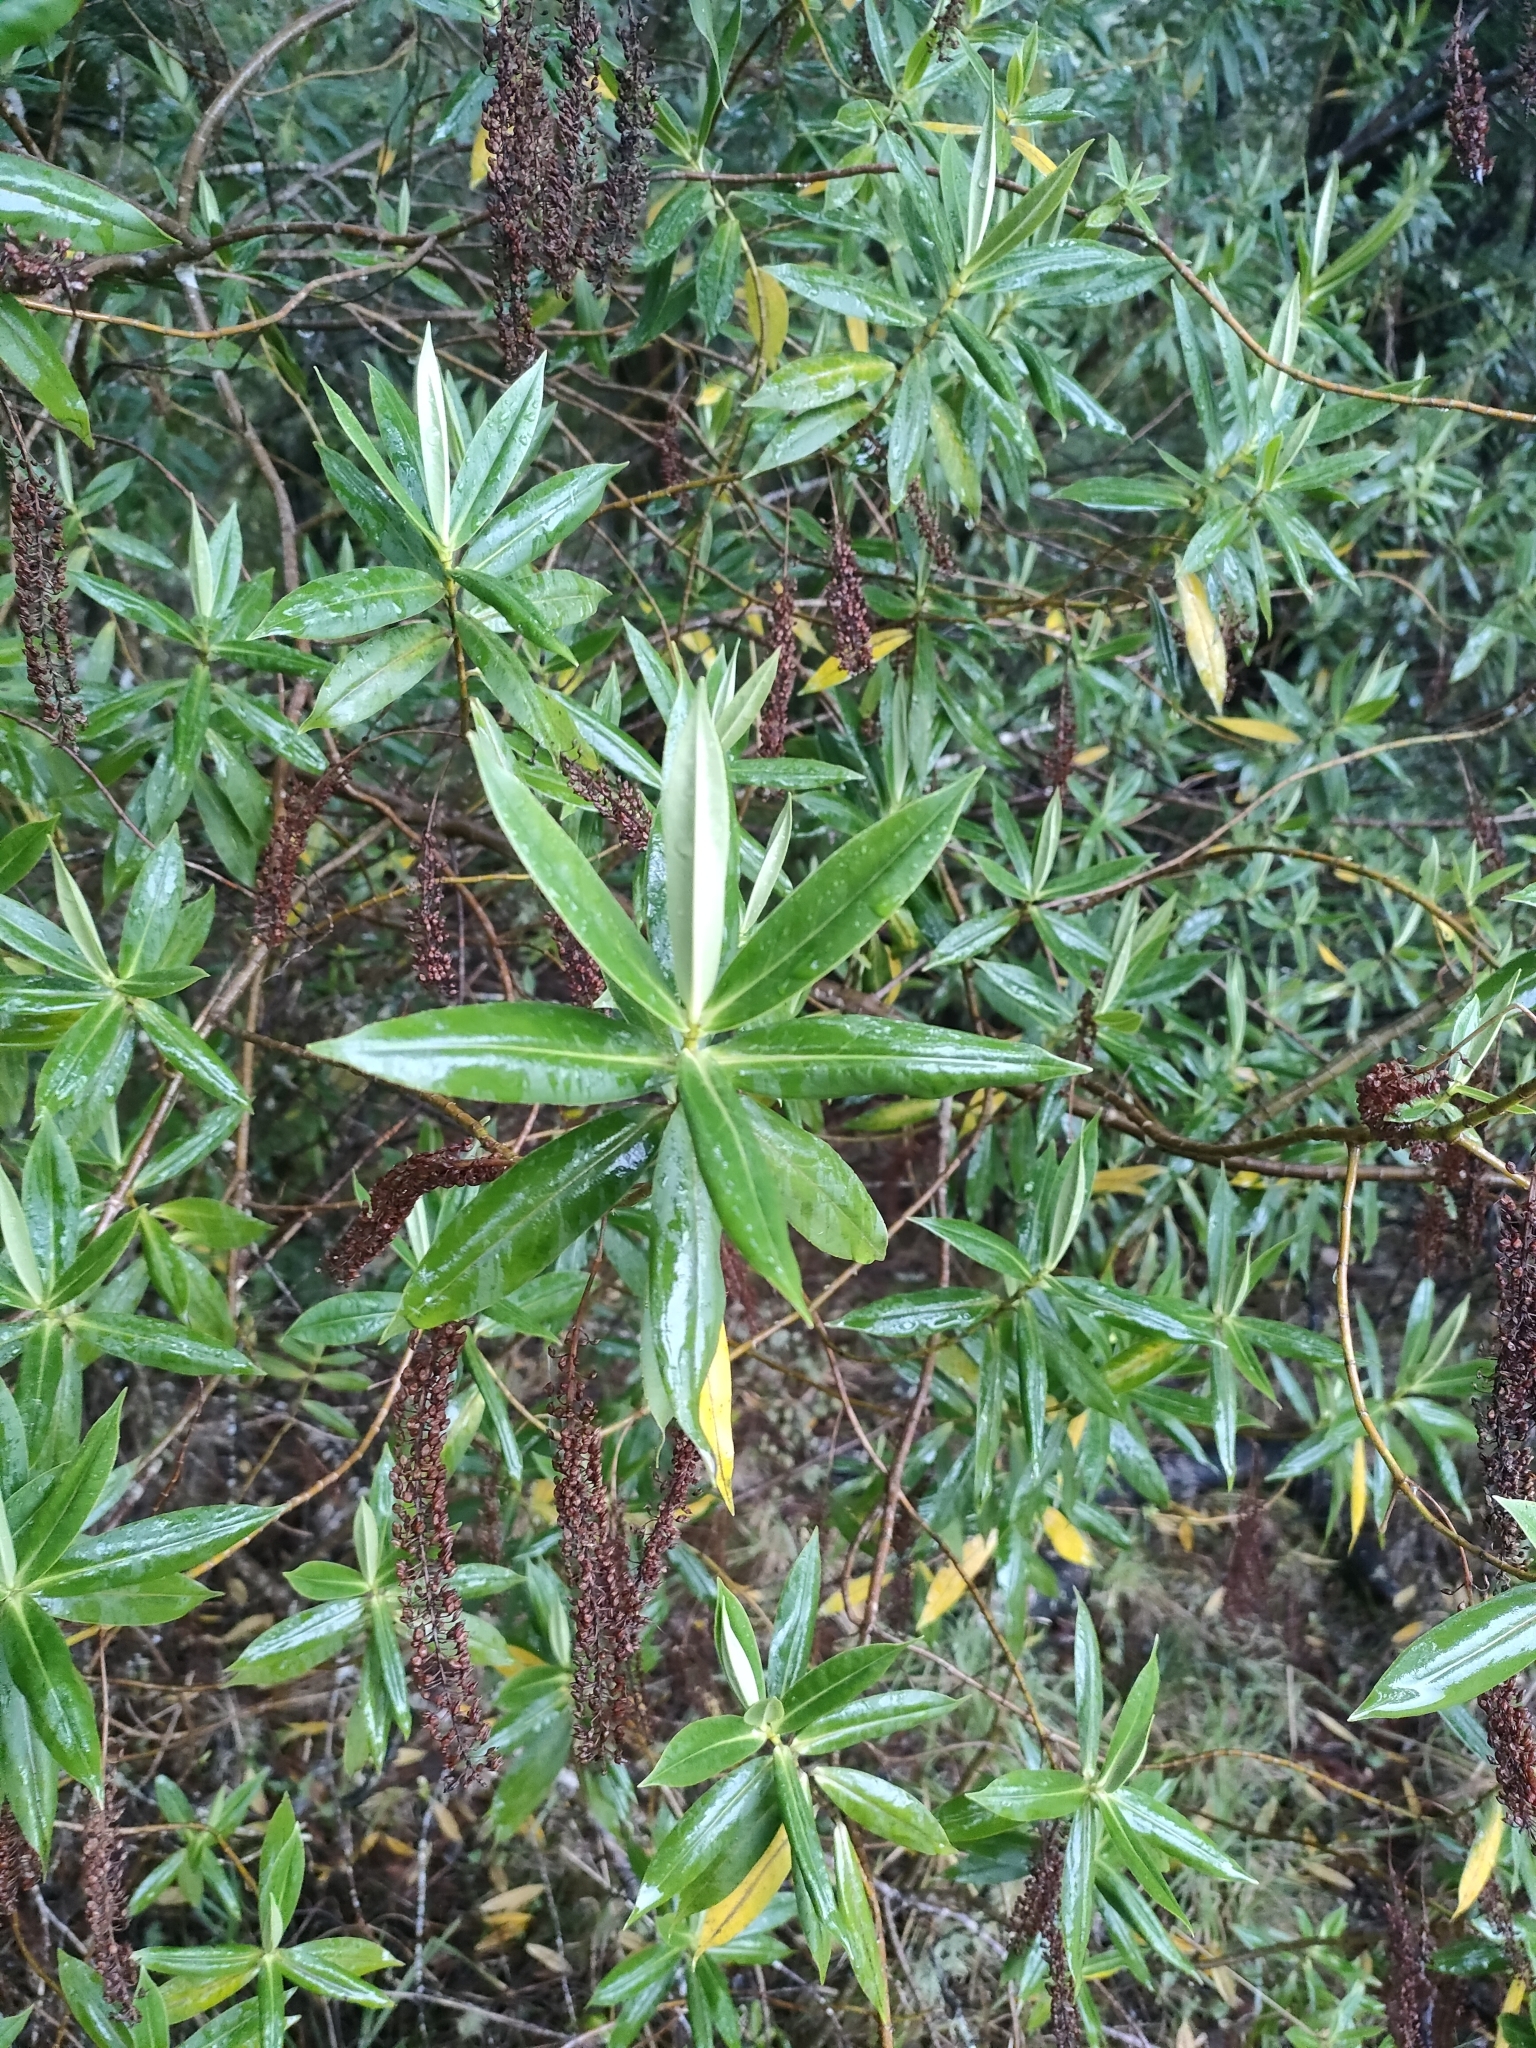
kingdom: Plantae
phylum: Tracheophyta
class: Magnoliopsida
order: Lamiales
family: Plantaginaceae
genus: Veronica
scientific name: Veronica salicifolia
